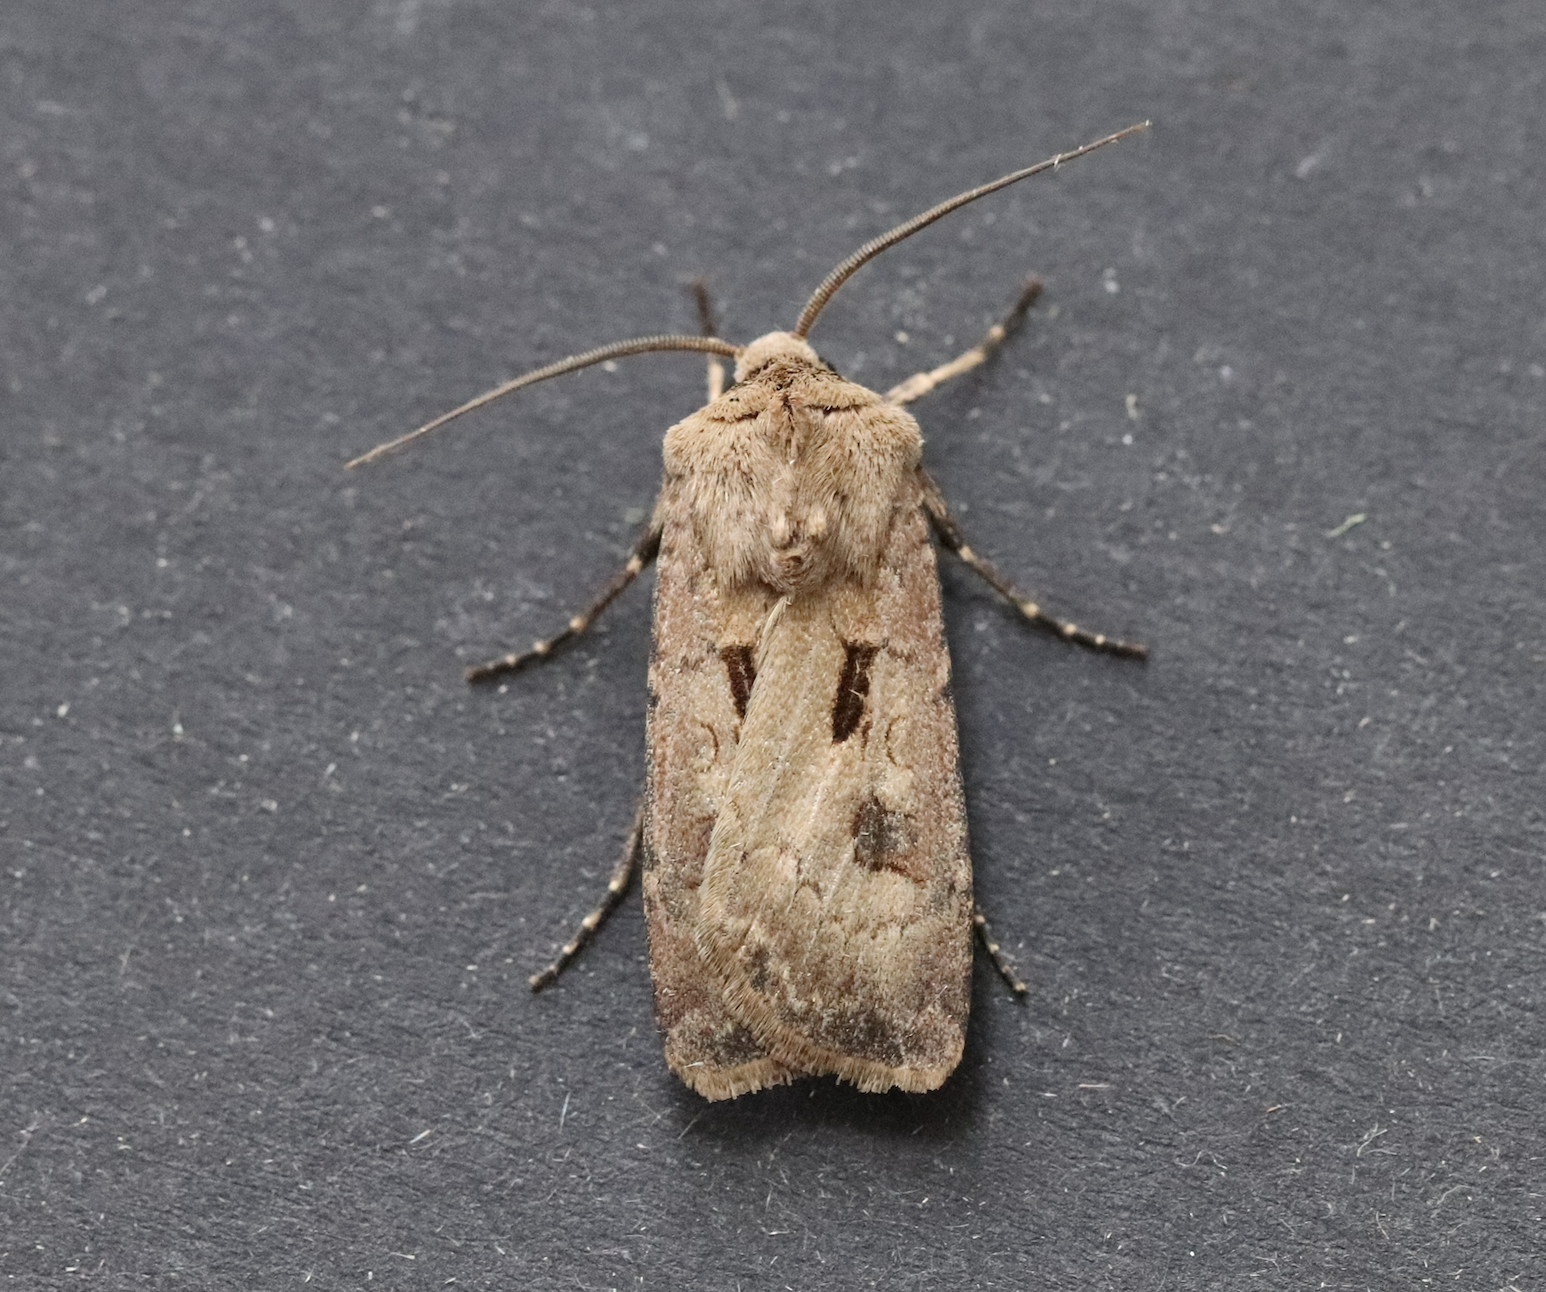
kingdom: Animalia
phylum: Arthropoda
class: Insecta
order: Lepidoptera
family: Noctuidae
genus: Agrotis
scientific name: Agrotis exclamationis
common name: Heart and dart
